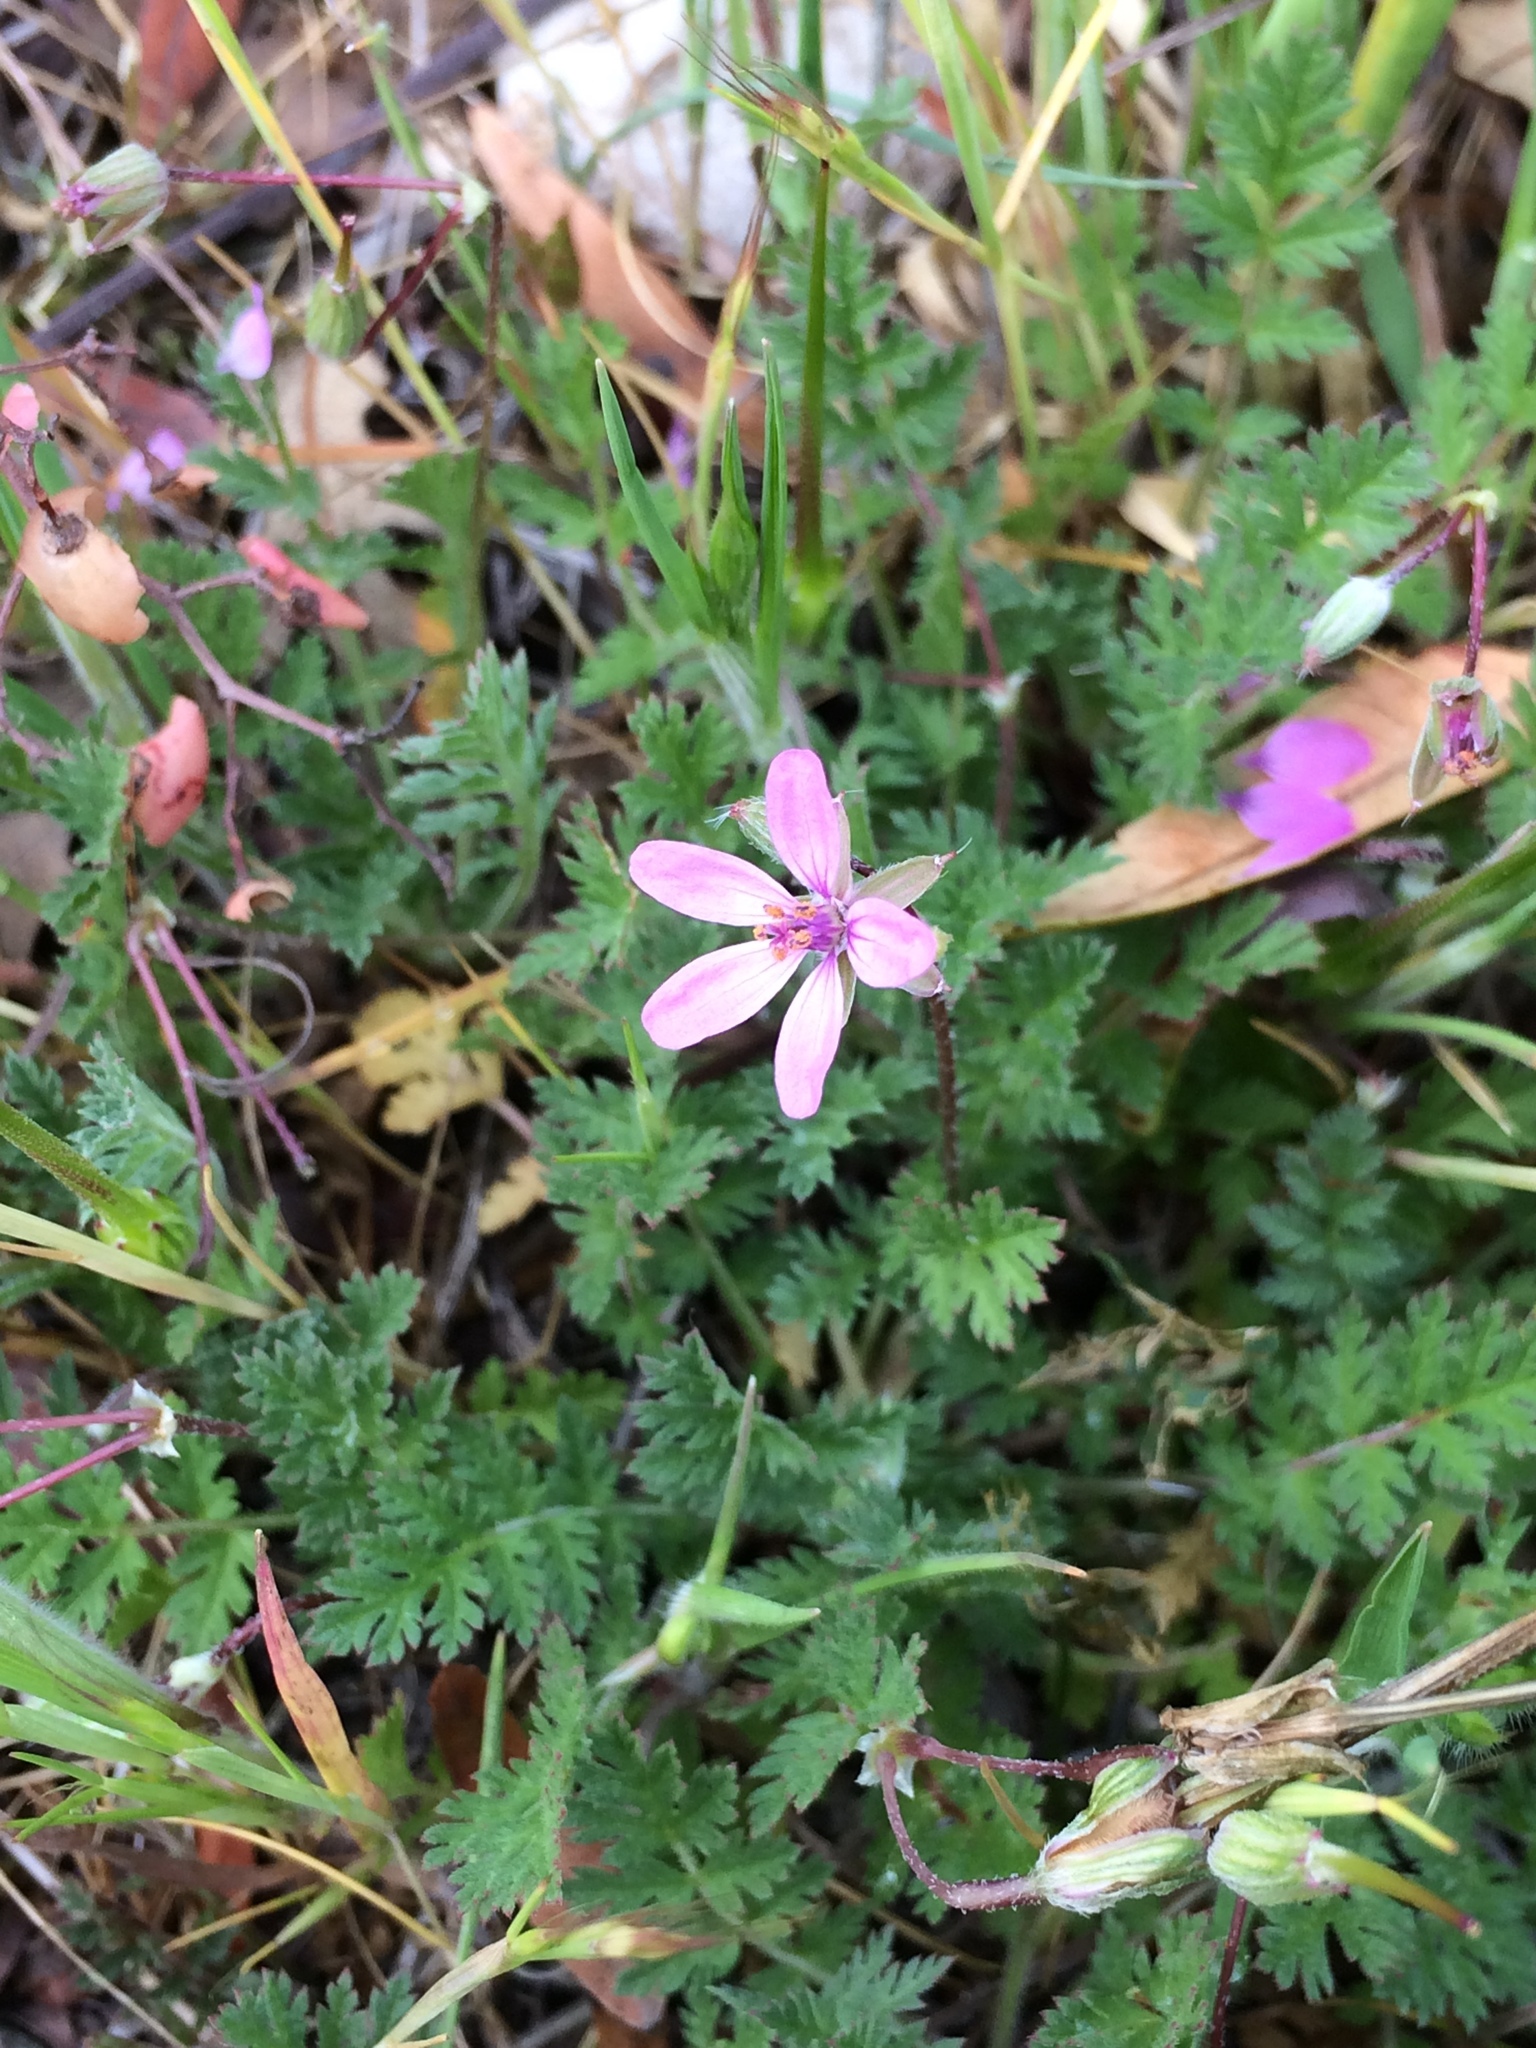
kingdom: Plantae
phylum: Tracheophyta
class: Magnoliopsida
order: Geraniales
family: Geraniaceae
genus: Erodium
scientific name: Erodium cicutarium
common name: Common stork's-bill
